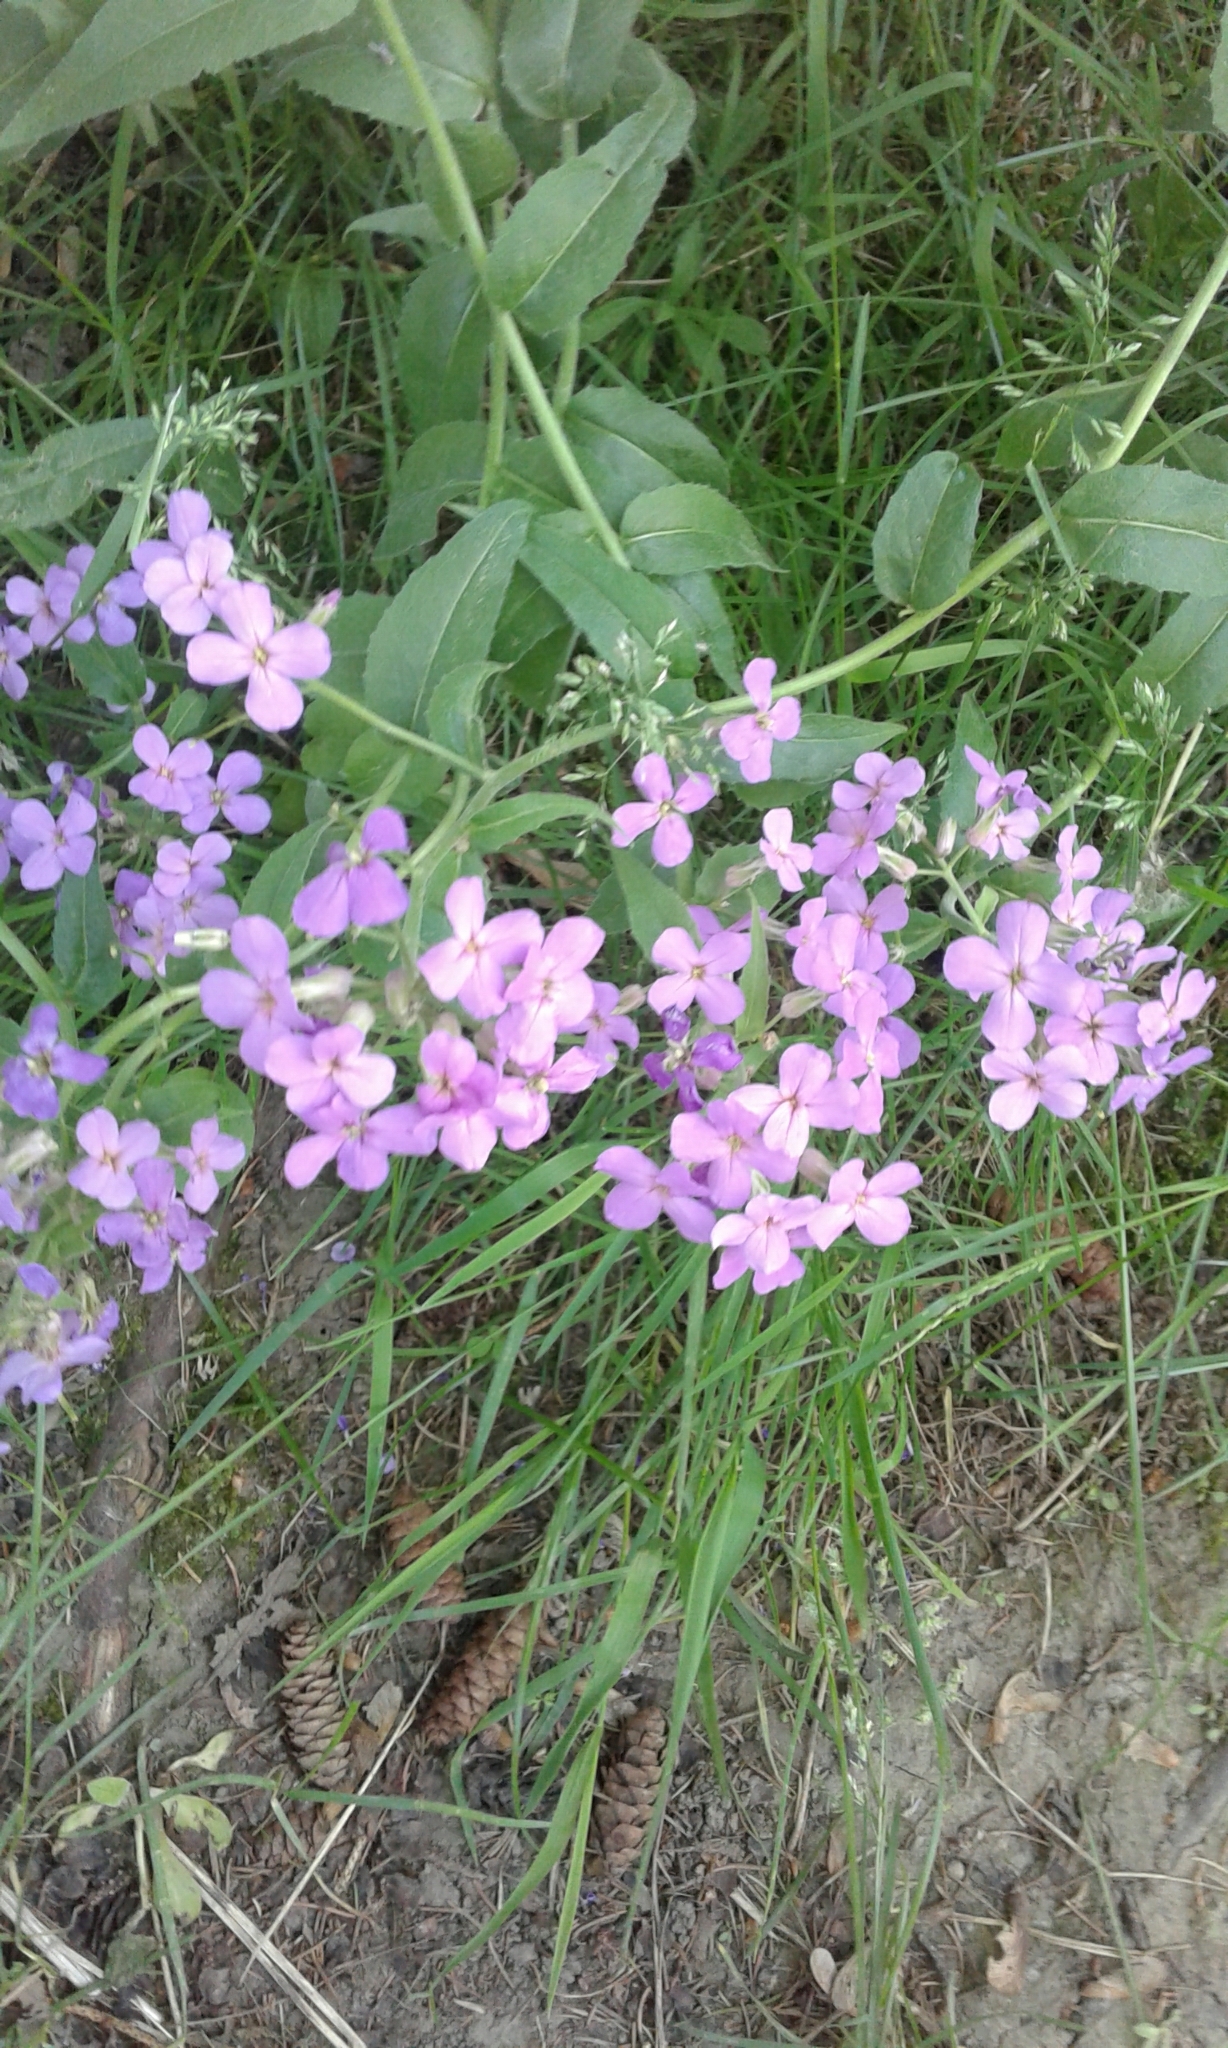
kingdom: Plantae
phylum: Tracheophyta
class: Magnoliopsida
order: Brassicales
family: Brassicaceae
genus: Hesperis
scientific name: Hesperis matronalis
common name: Dame's-violet
